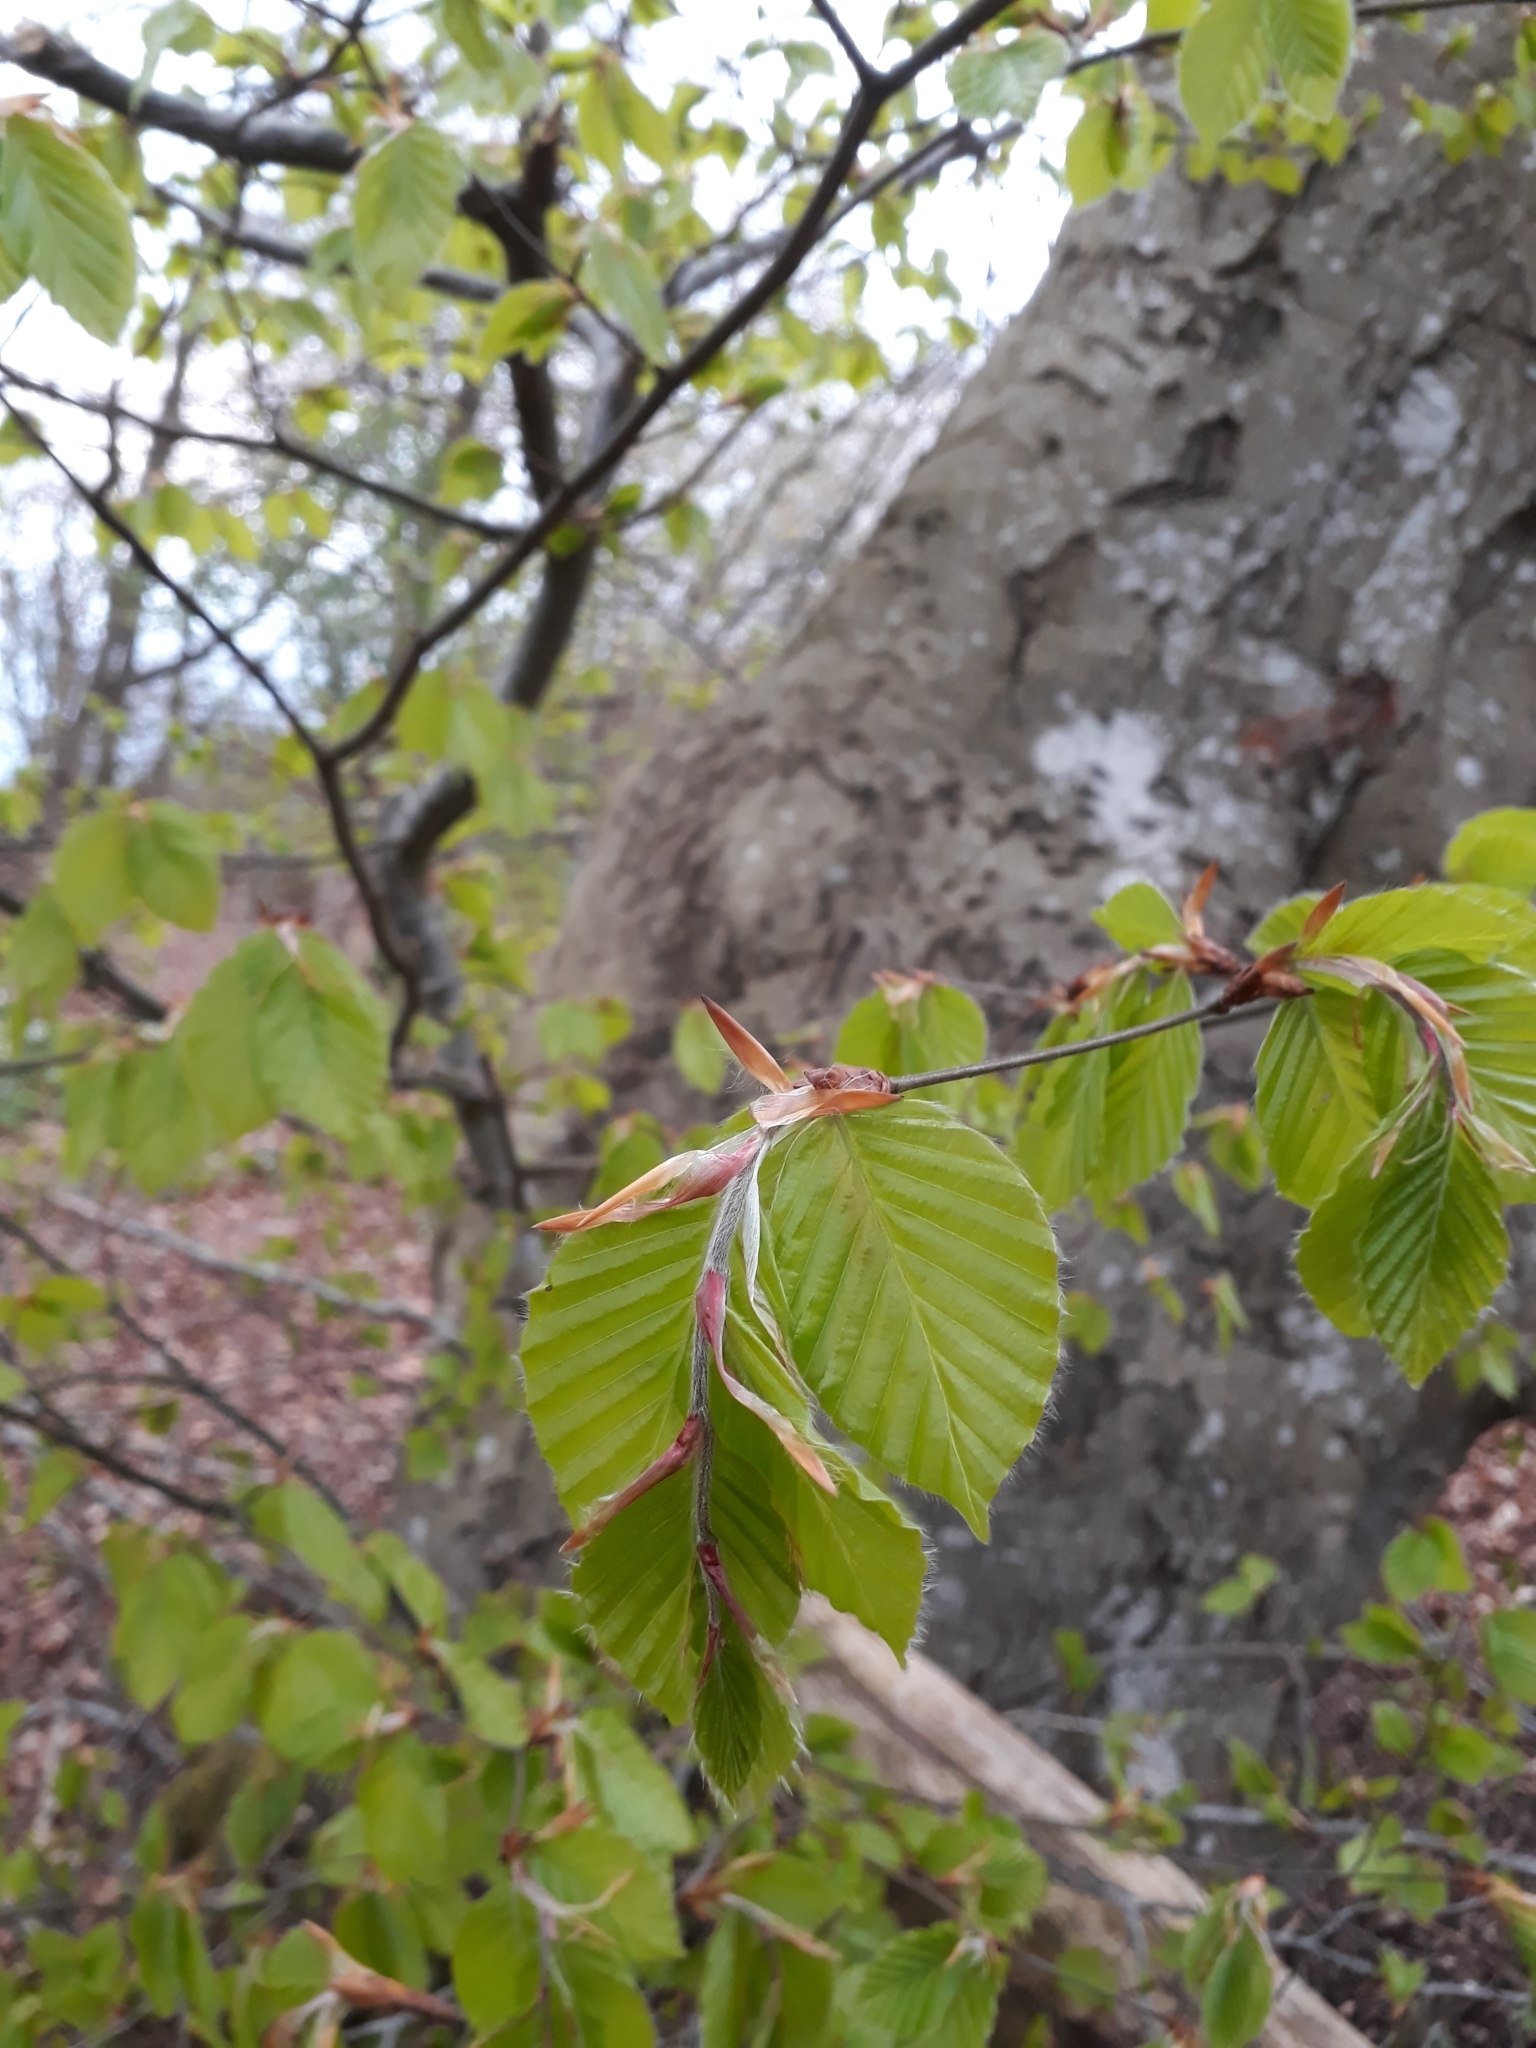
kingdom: Plantae
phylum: Tracheophyta
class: Magnoliopsida
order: Fagales
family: Fagaceae
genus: Fagus
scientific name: Fagus sylvatica
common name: Beech
